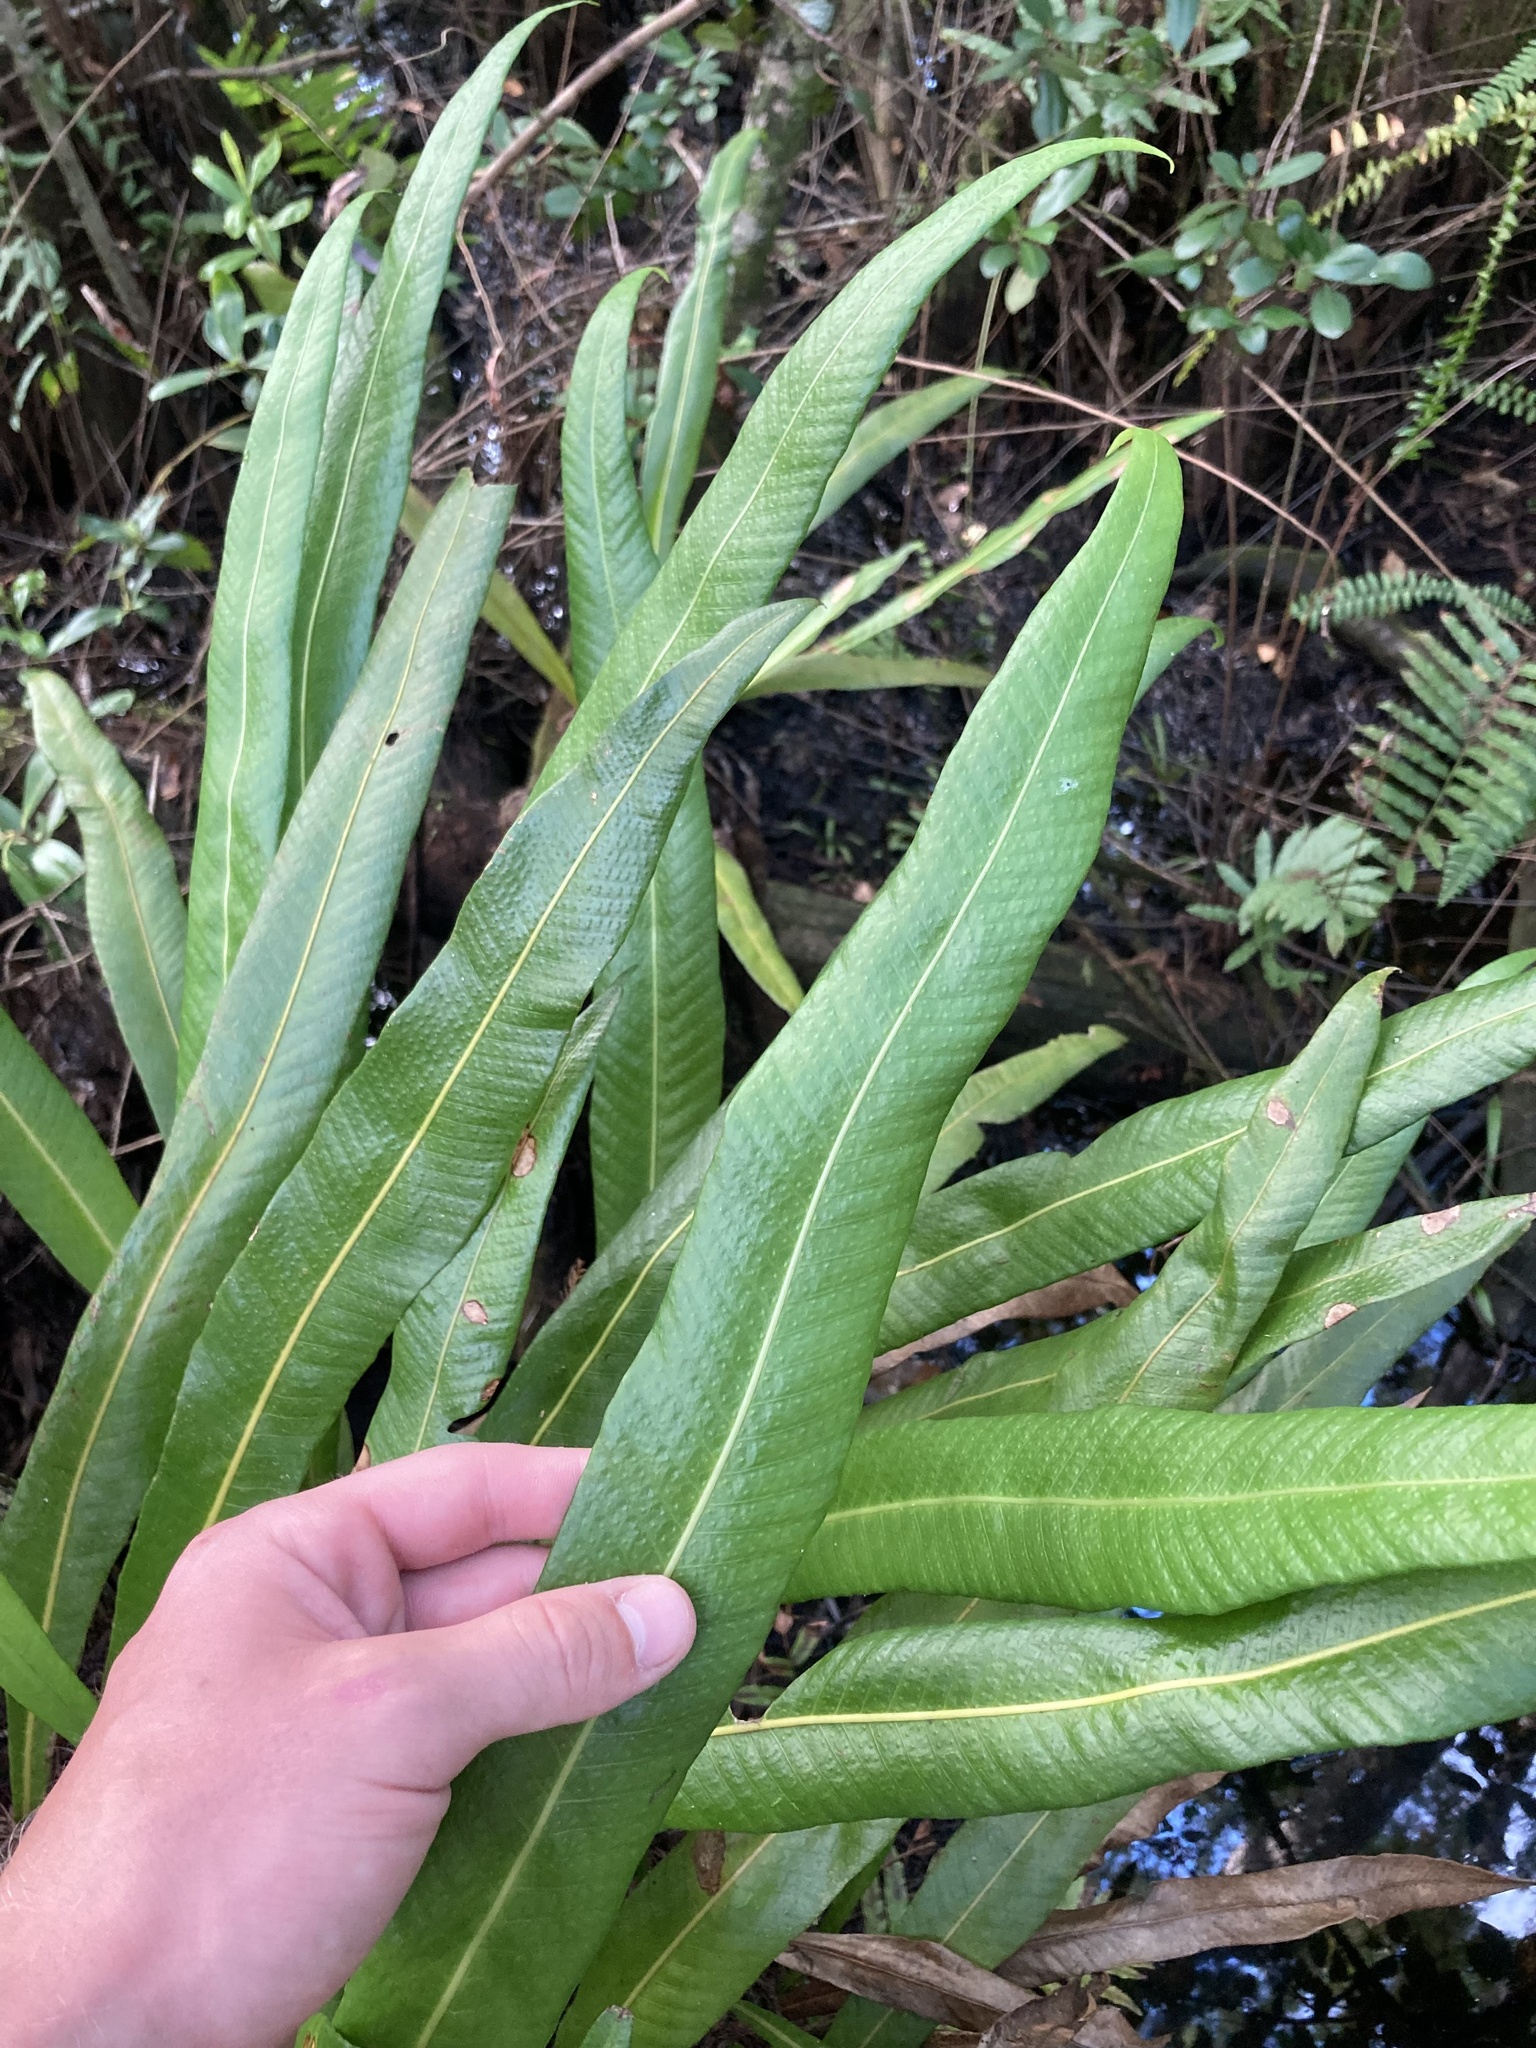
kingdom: Plantae
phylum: Tracheophyta
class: Polypodiopsida
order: Polypodiales
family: Polypodiaceae
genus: Campyloneurum
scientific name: Campyloneurum phyllitidis
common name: Cow-tongue fern
